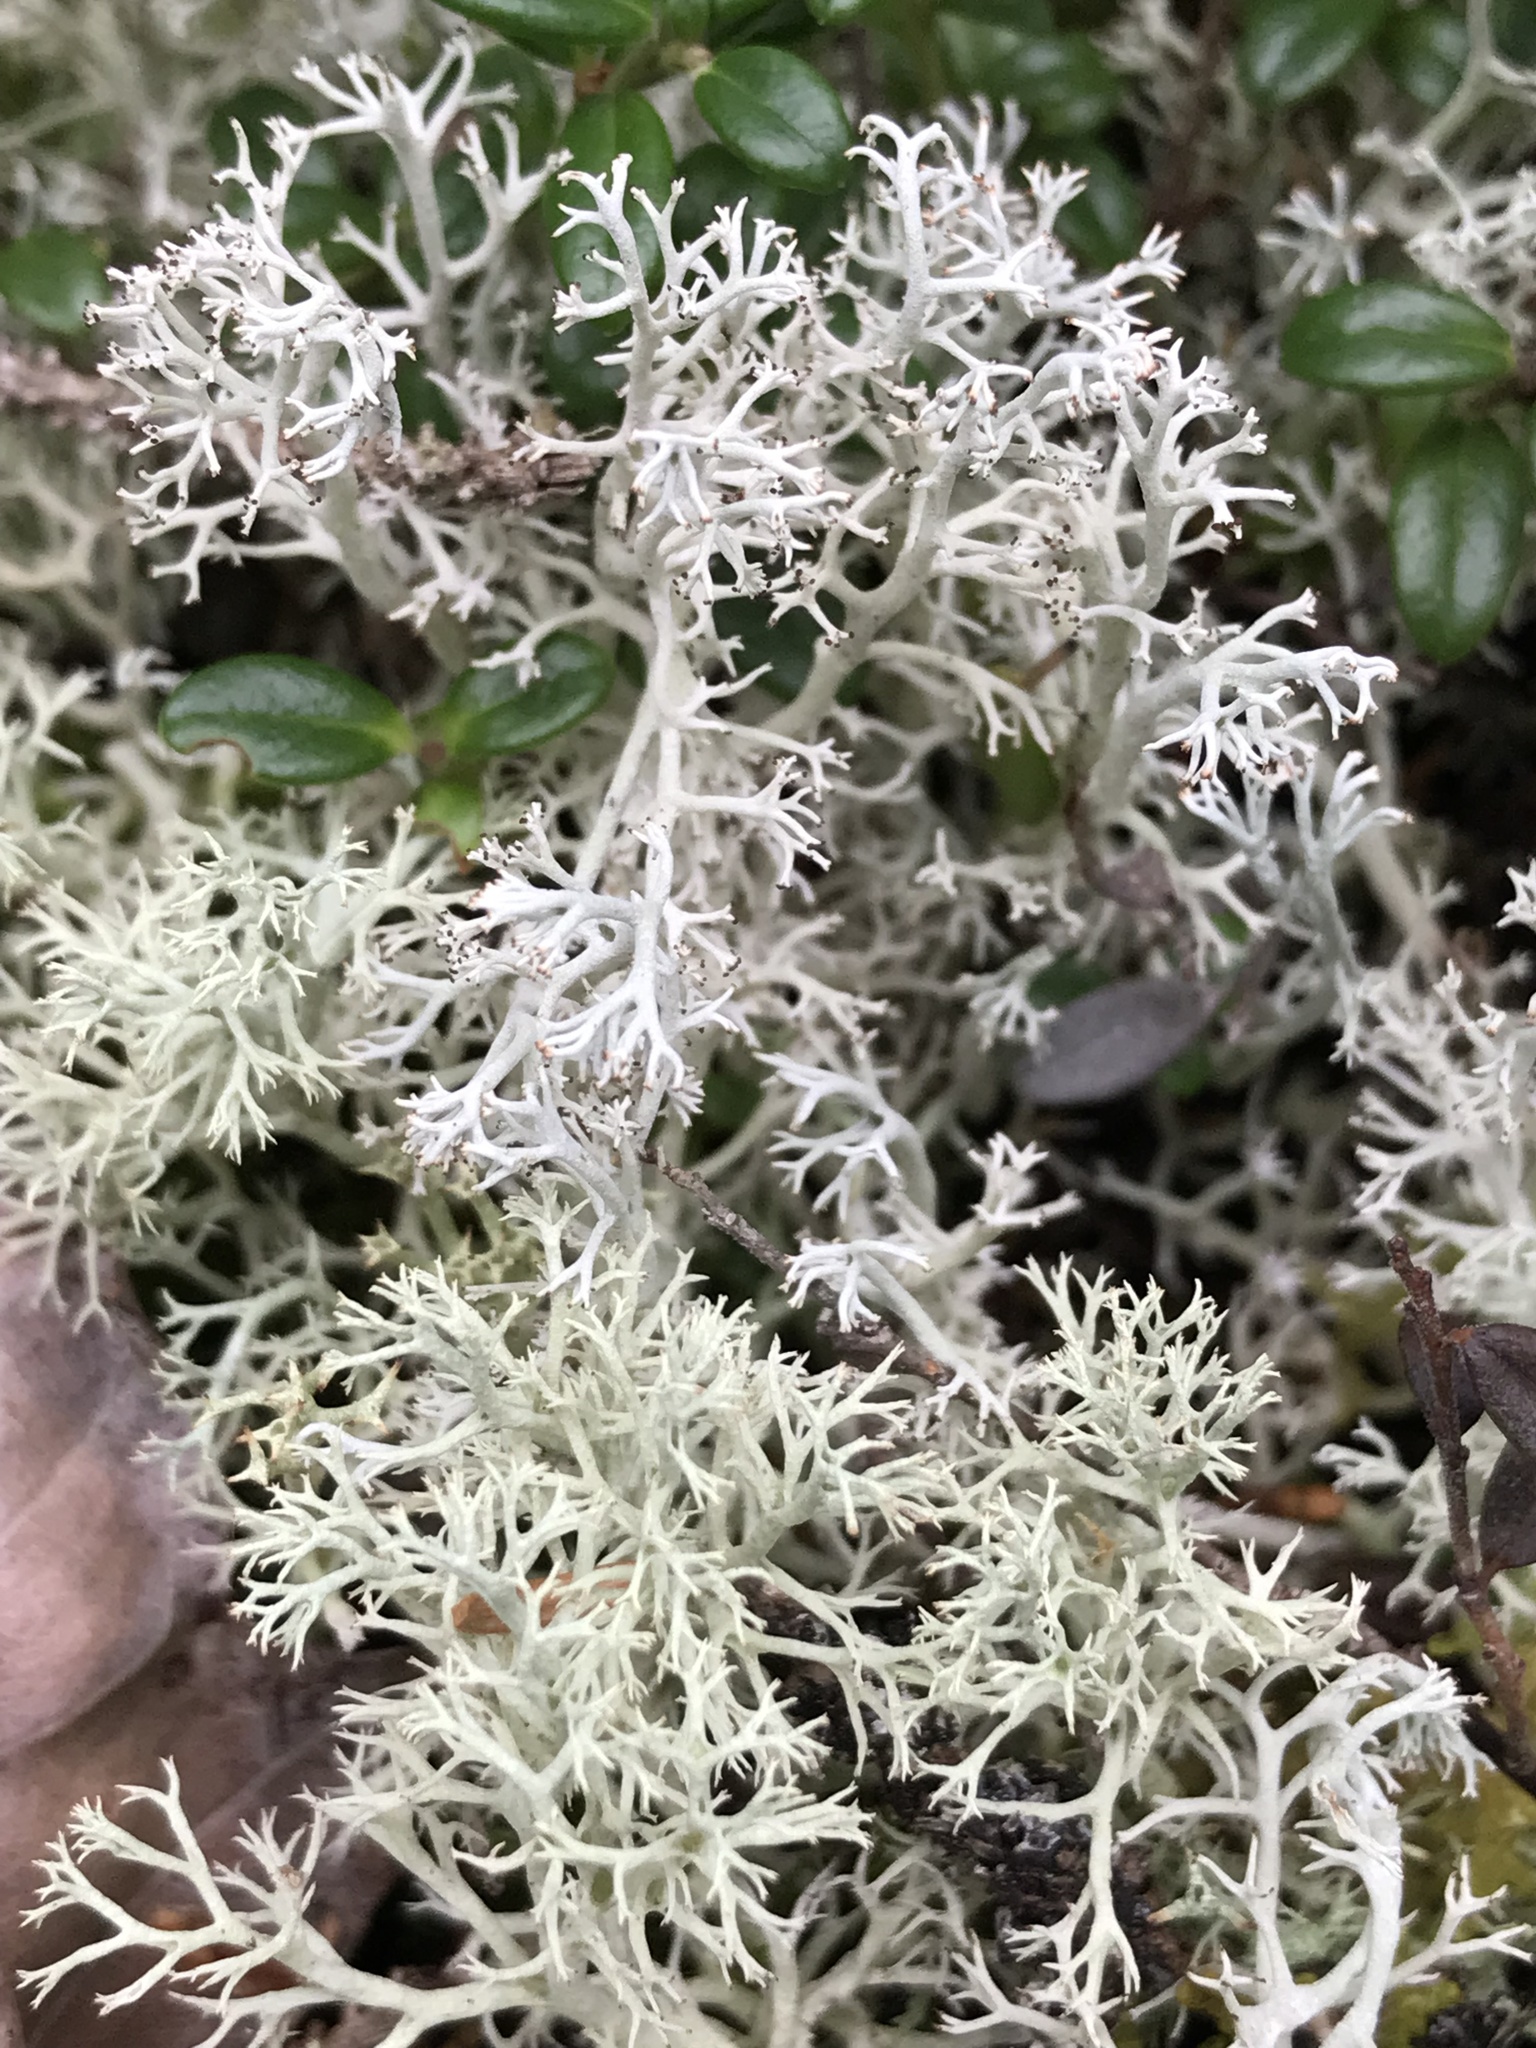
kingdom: Fungi
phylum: Ascomycota
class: Lecanoromycetes
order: Lecanorales
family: Cladoniaceae
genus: Cladonia
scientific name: Cladonia rangiferina
